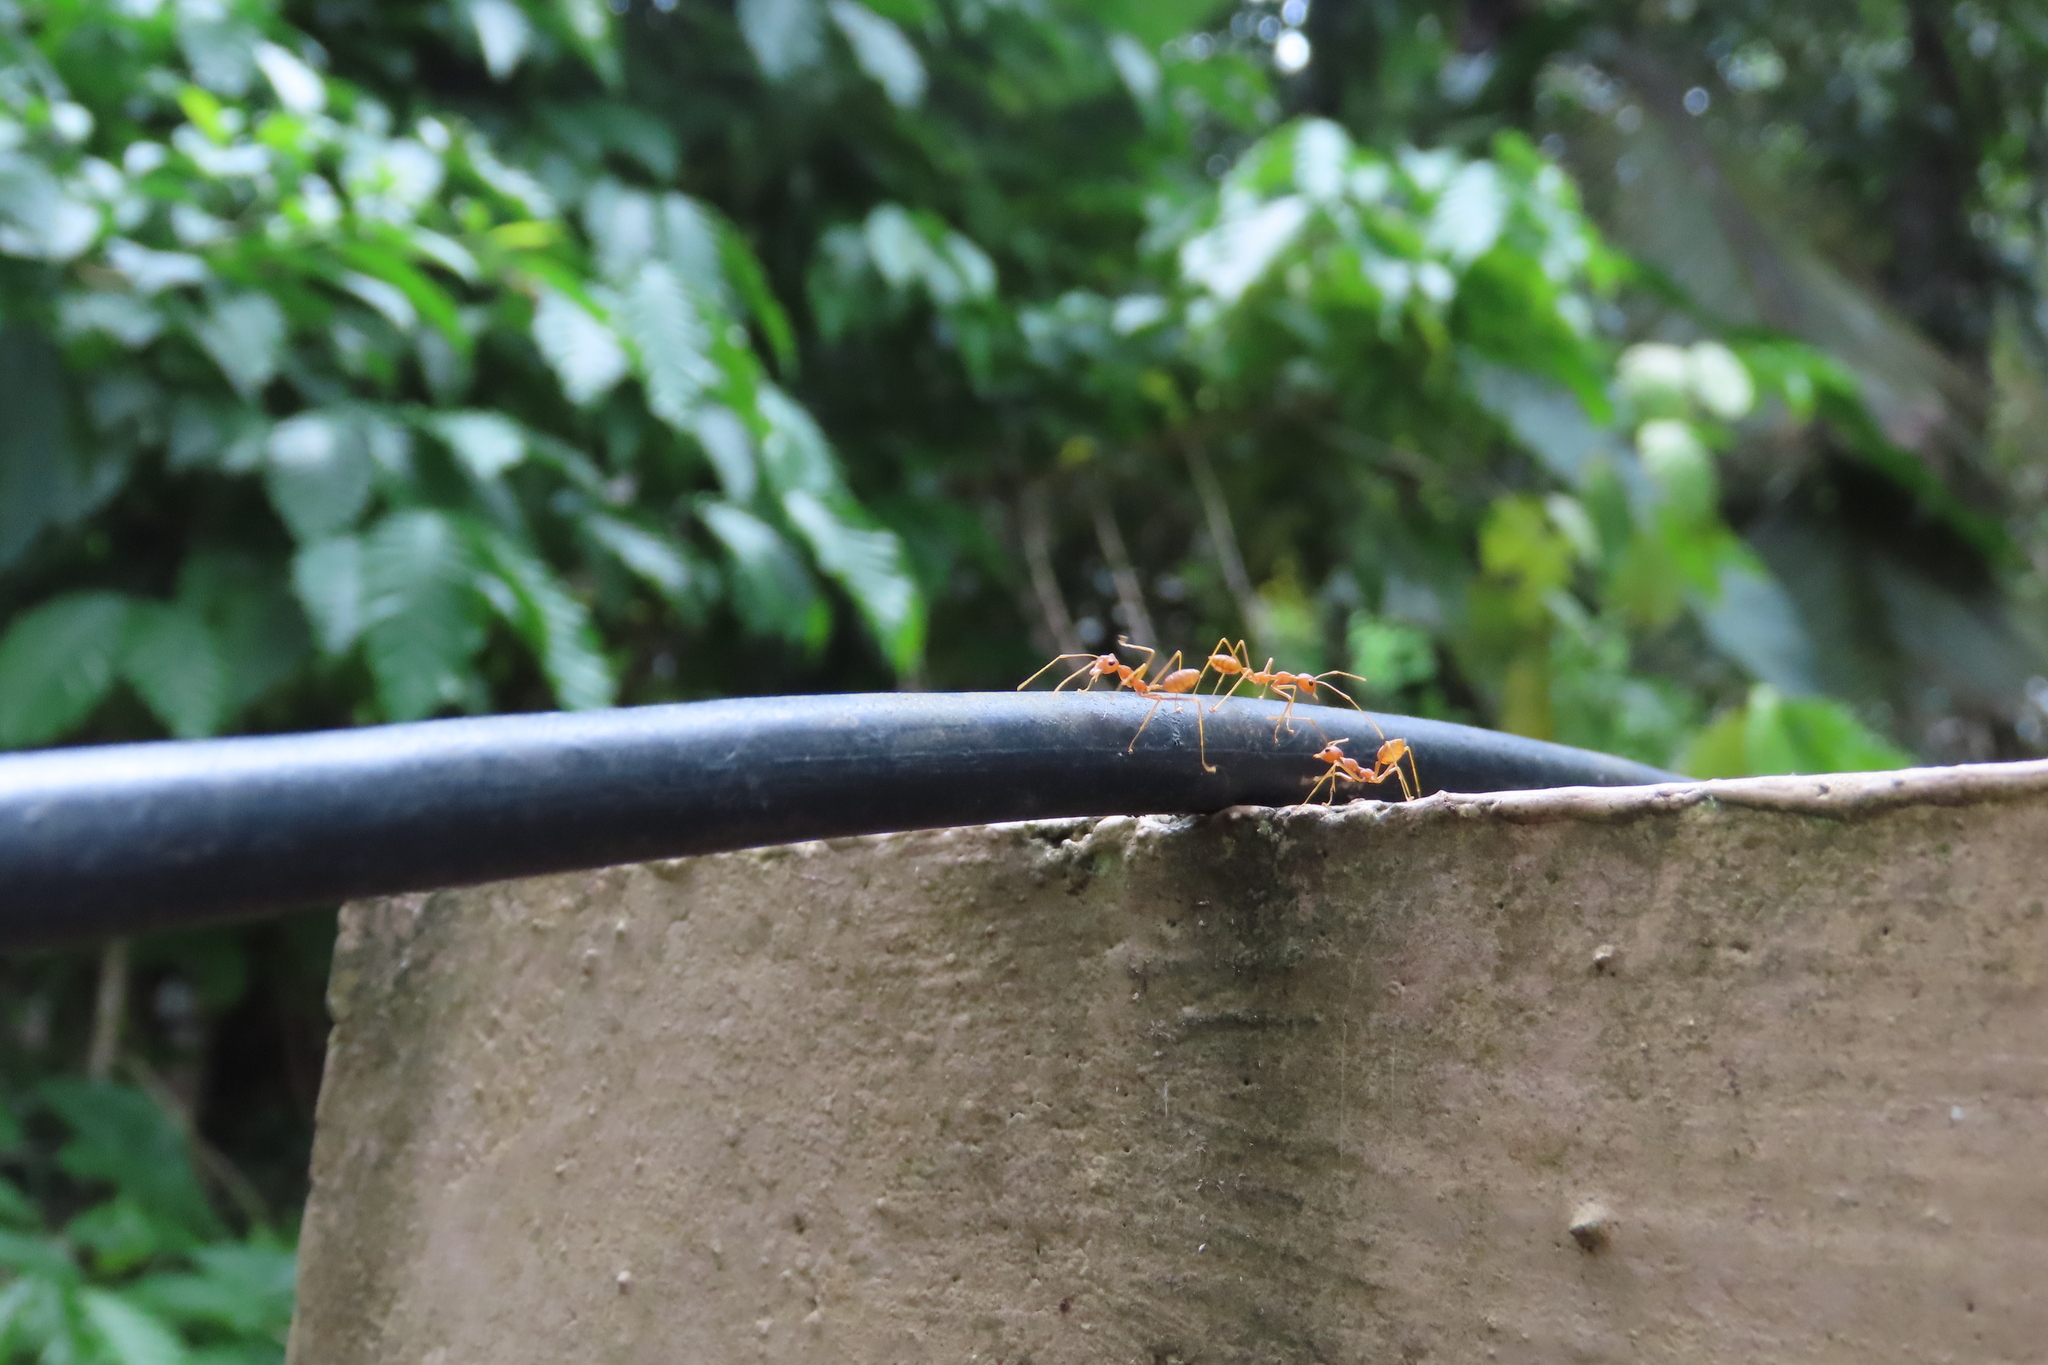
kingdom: Animalia
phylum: Arthropoda
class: Insecta
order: Hymenoptera
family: Formicidae
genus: Oecophylla
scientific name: Oecophylla smaragdina
